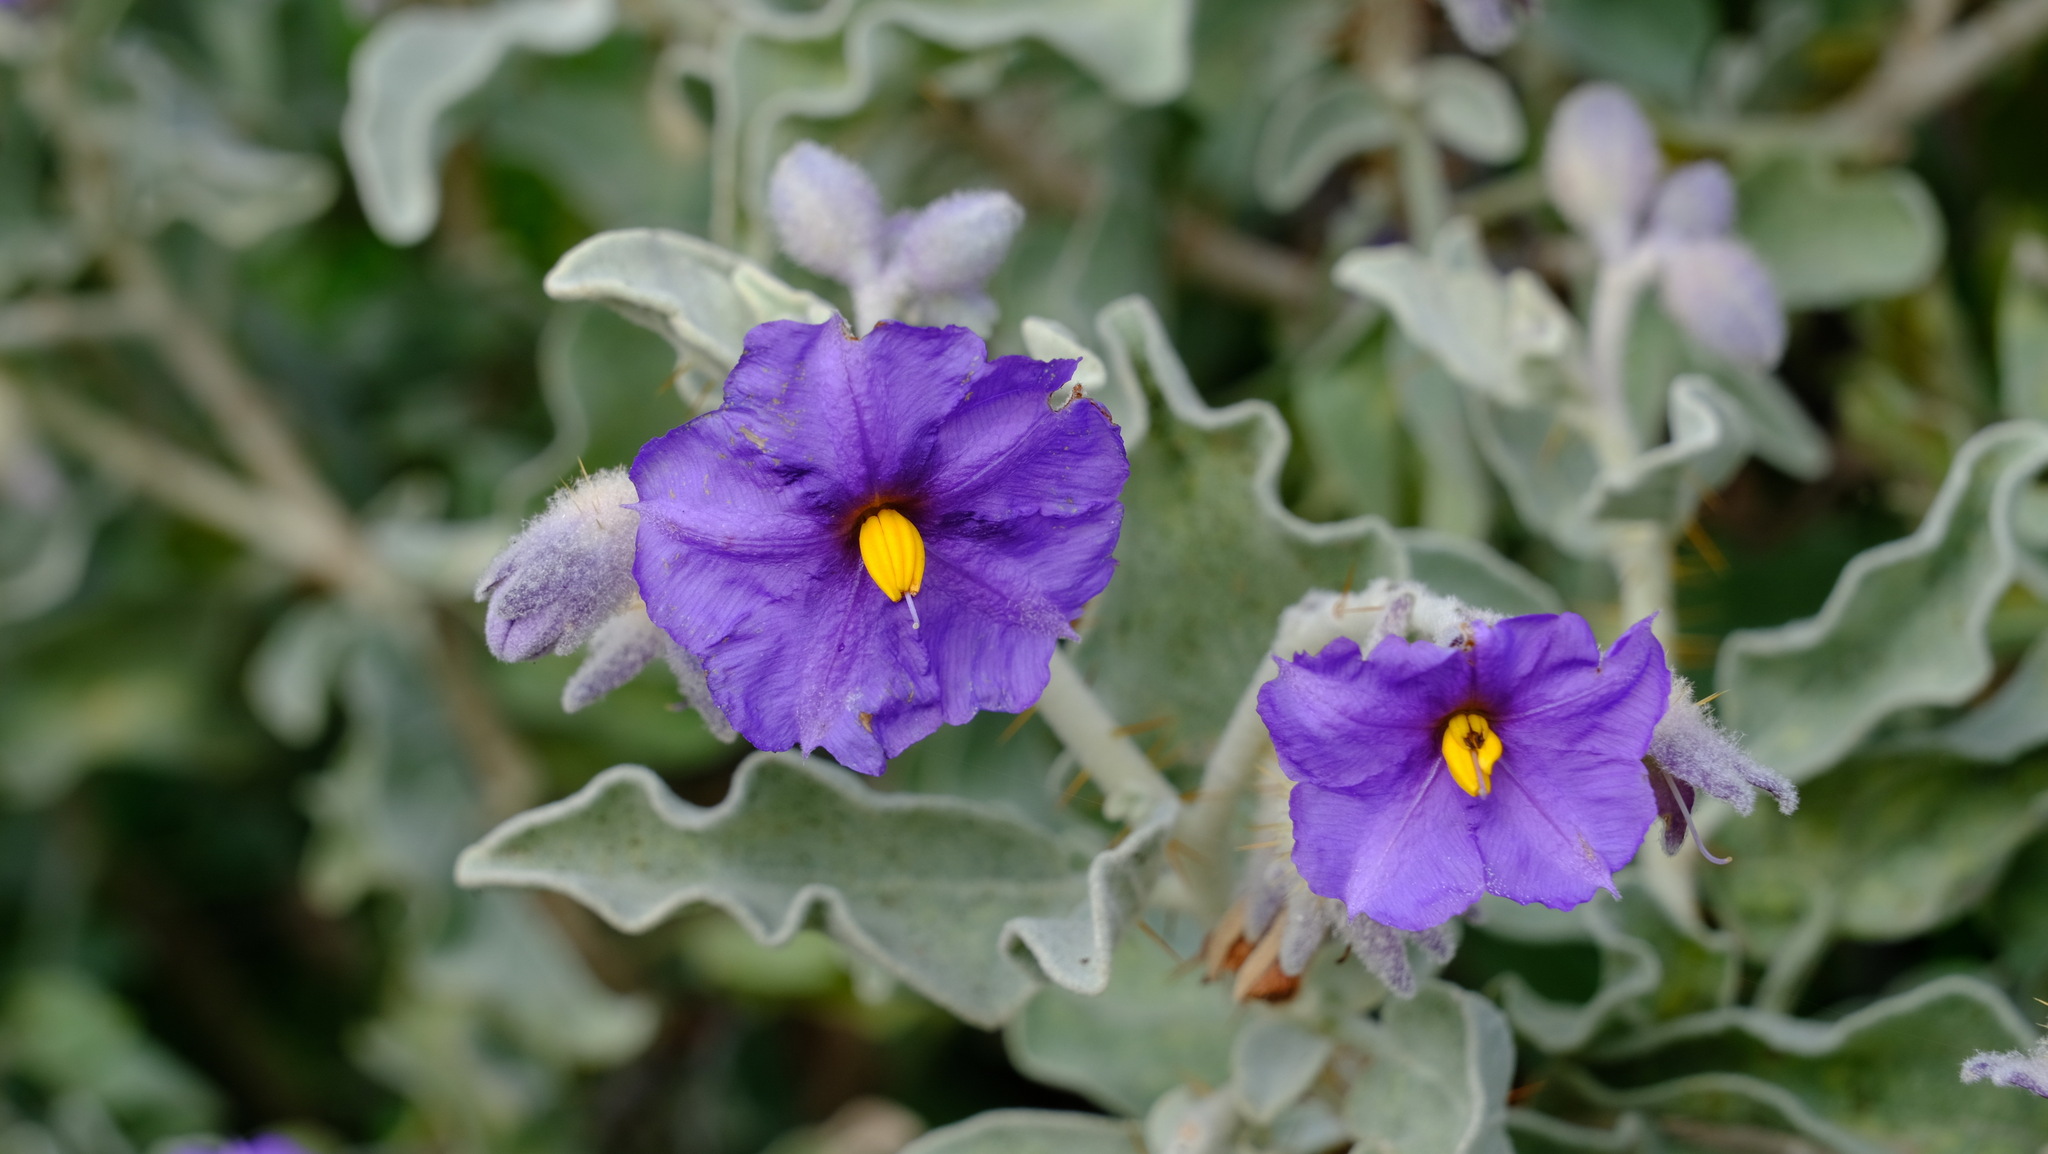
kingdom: Plantae
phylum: Tracheophyta
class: Magnoliopsida
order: Solanales
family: Solanaceae
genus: Solanum
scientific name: Solanum lasiophyllum
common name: Flannelbush
